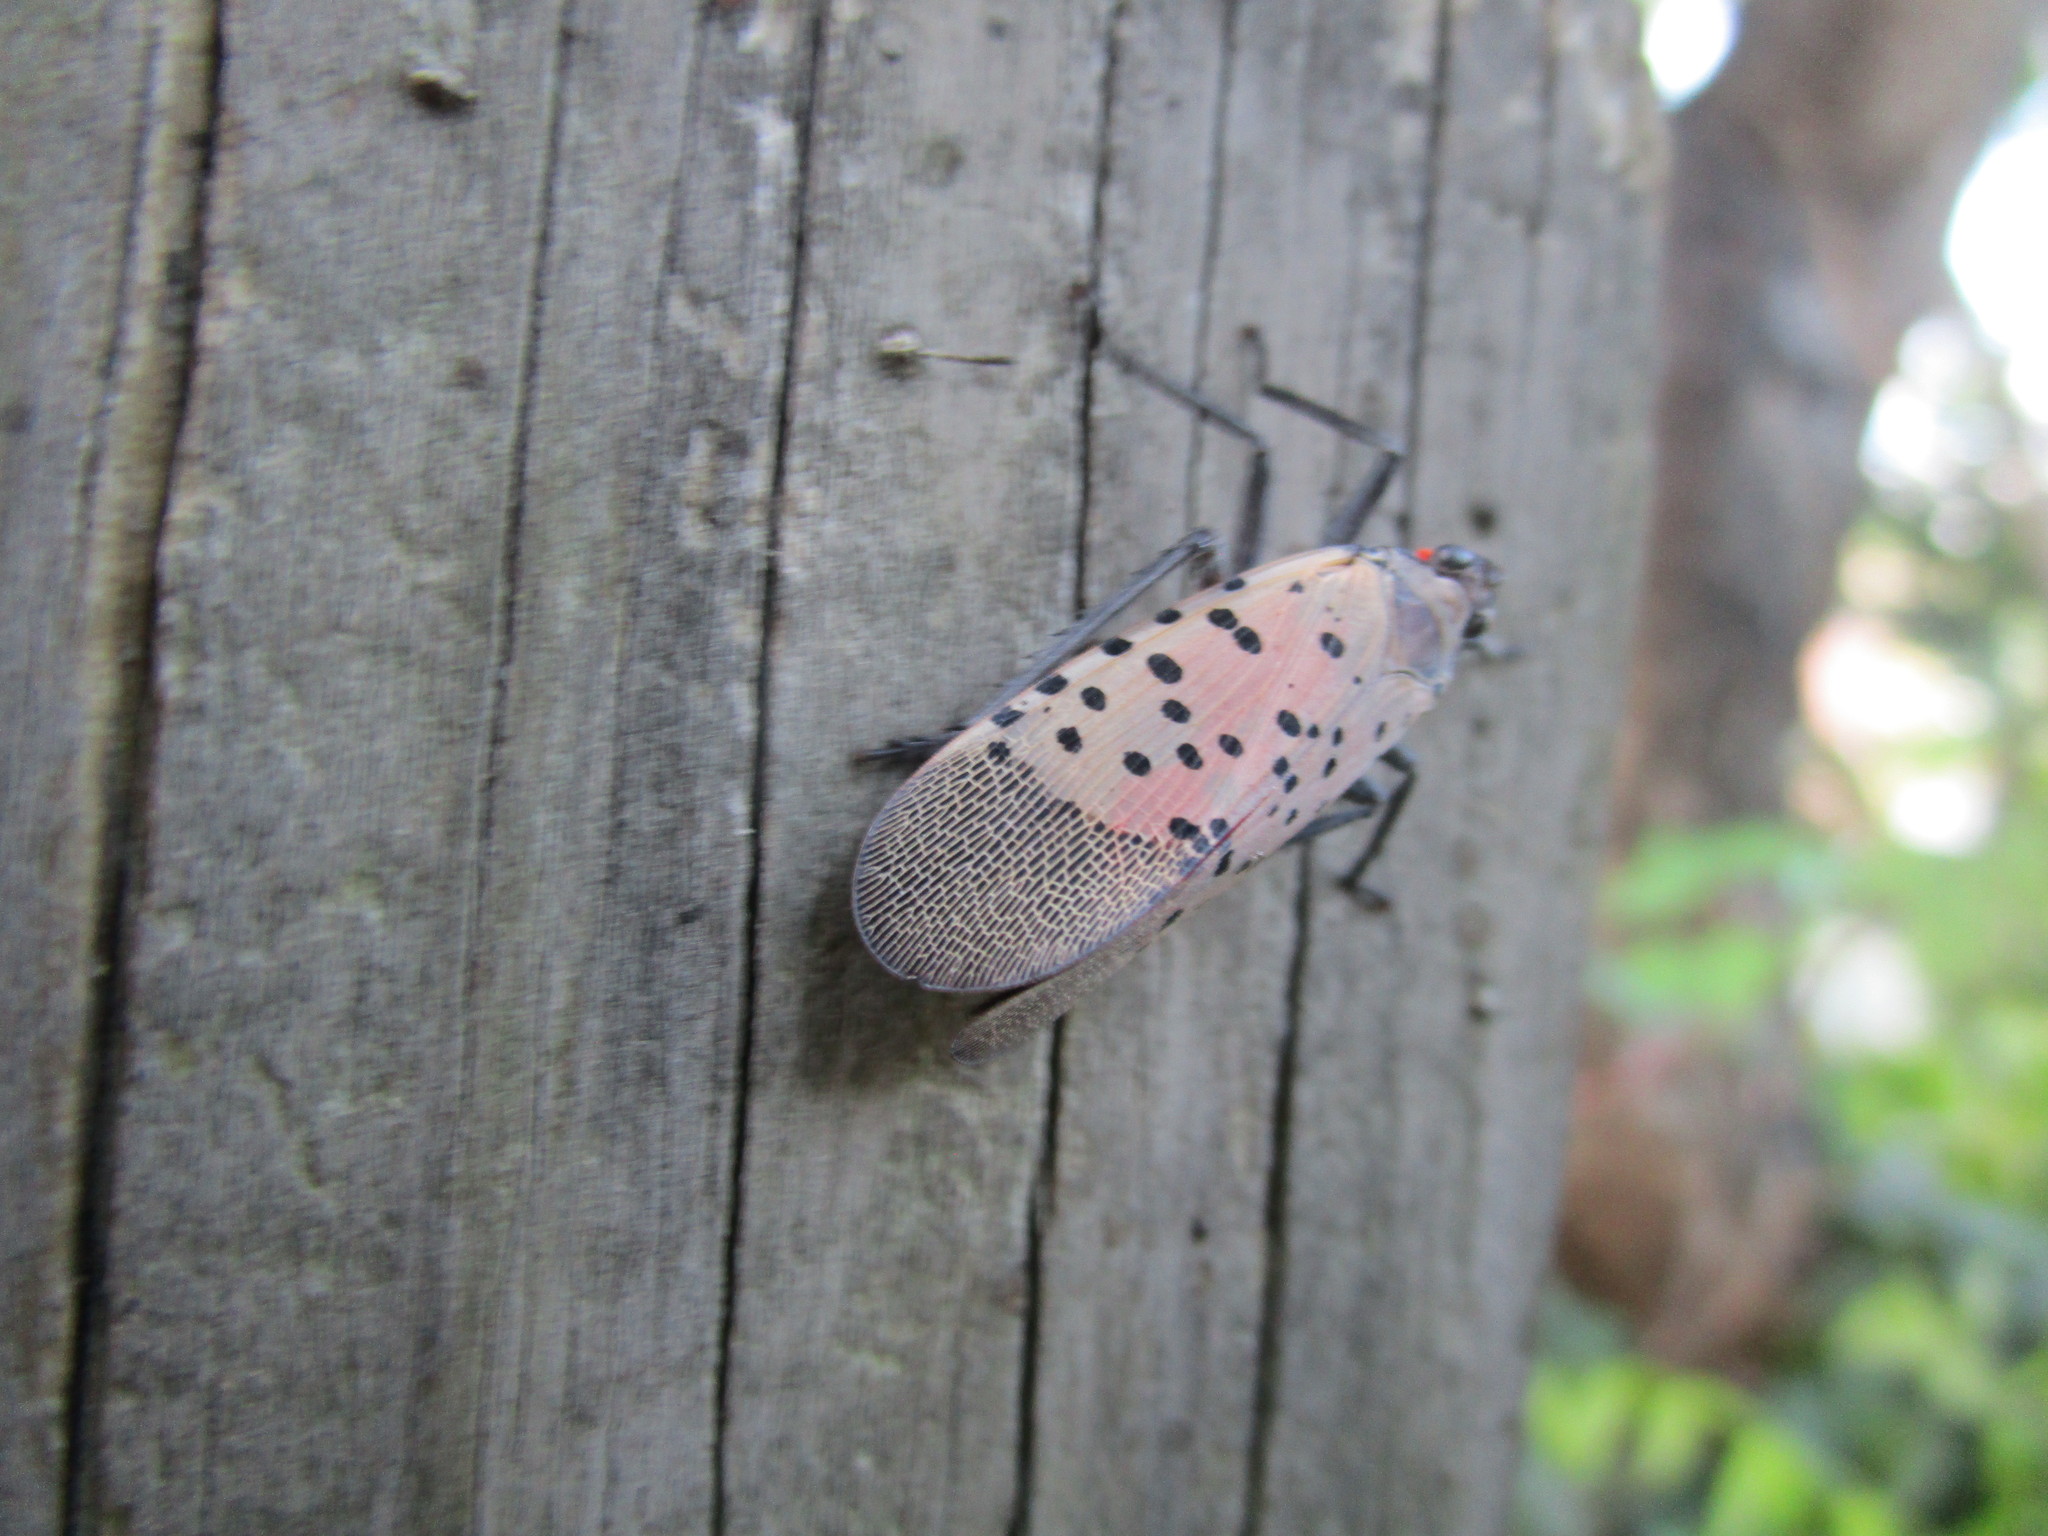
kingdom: Animalia
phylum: Arthropoda
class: Insecta
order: Hemiptera
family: Fulgoridae
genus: Lycorma
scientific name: Lycorma delicatula
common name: Spotted lanternfly
